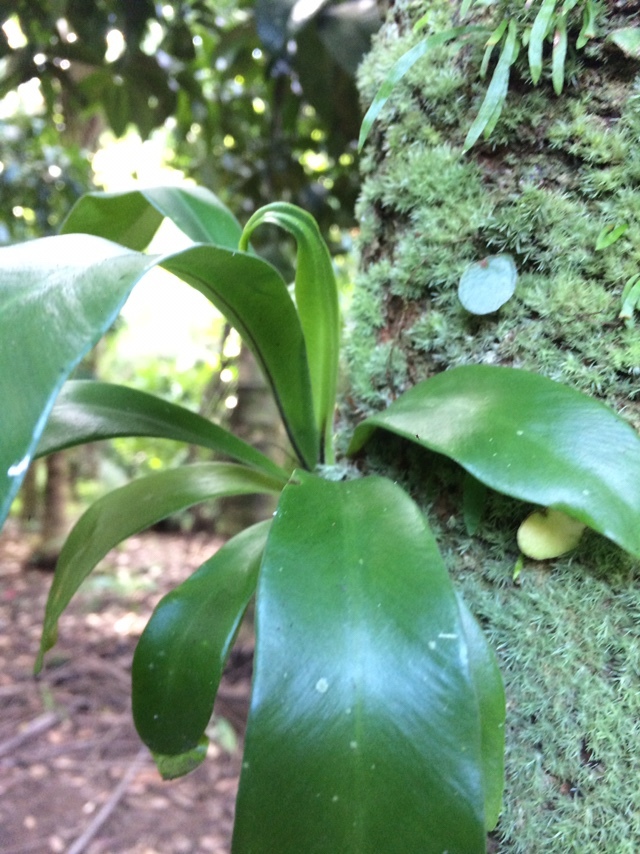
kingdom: Plantae
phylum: Tracheophyta
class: Polypodiopsida
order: Polypodiales
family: Aspleniaceae
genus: Asplenium
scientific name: Asplenium nidus
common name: Bird's-nest fern
